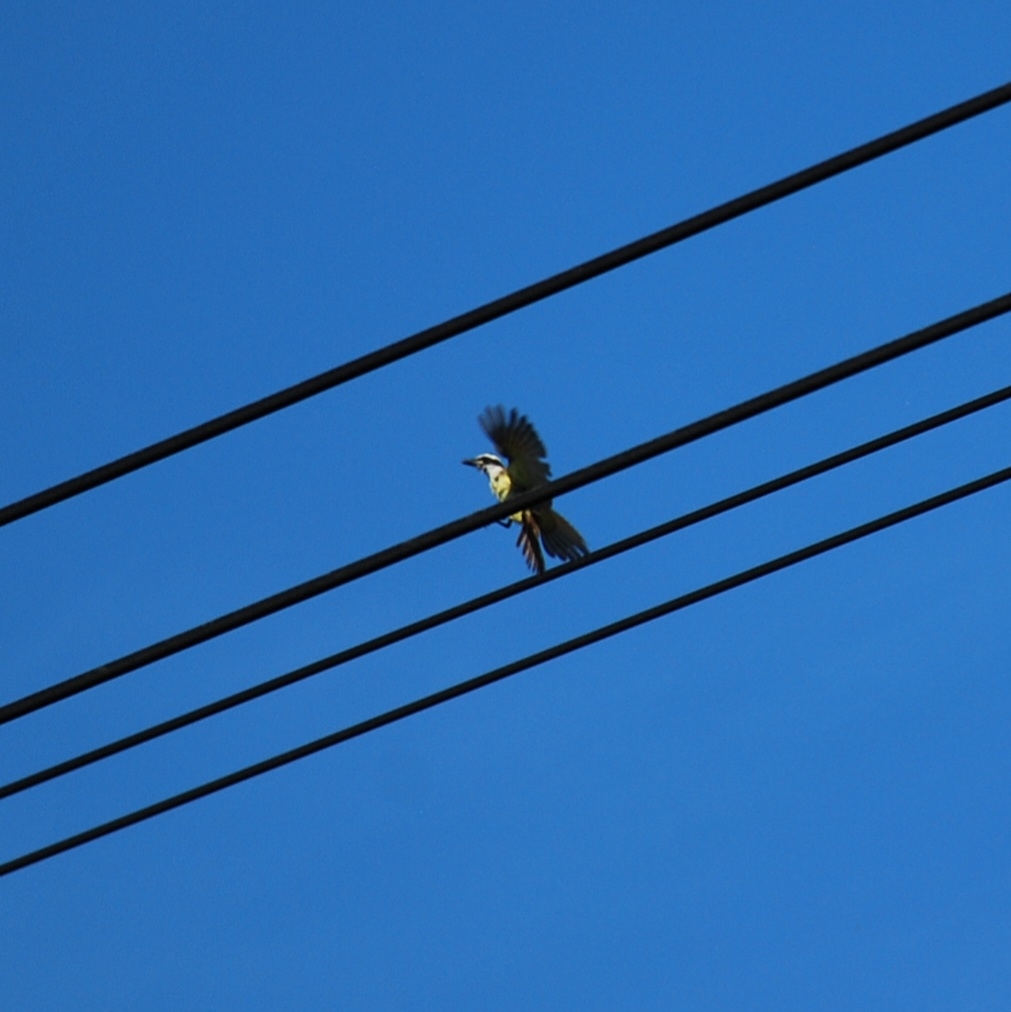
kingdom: Animalia
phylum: Chordata
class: Aves
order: Passeriformes
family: Tyrannidae
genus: Pitangus
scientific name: Pitangus sulphuratus
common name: Great kiskadee
